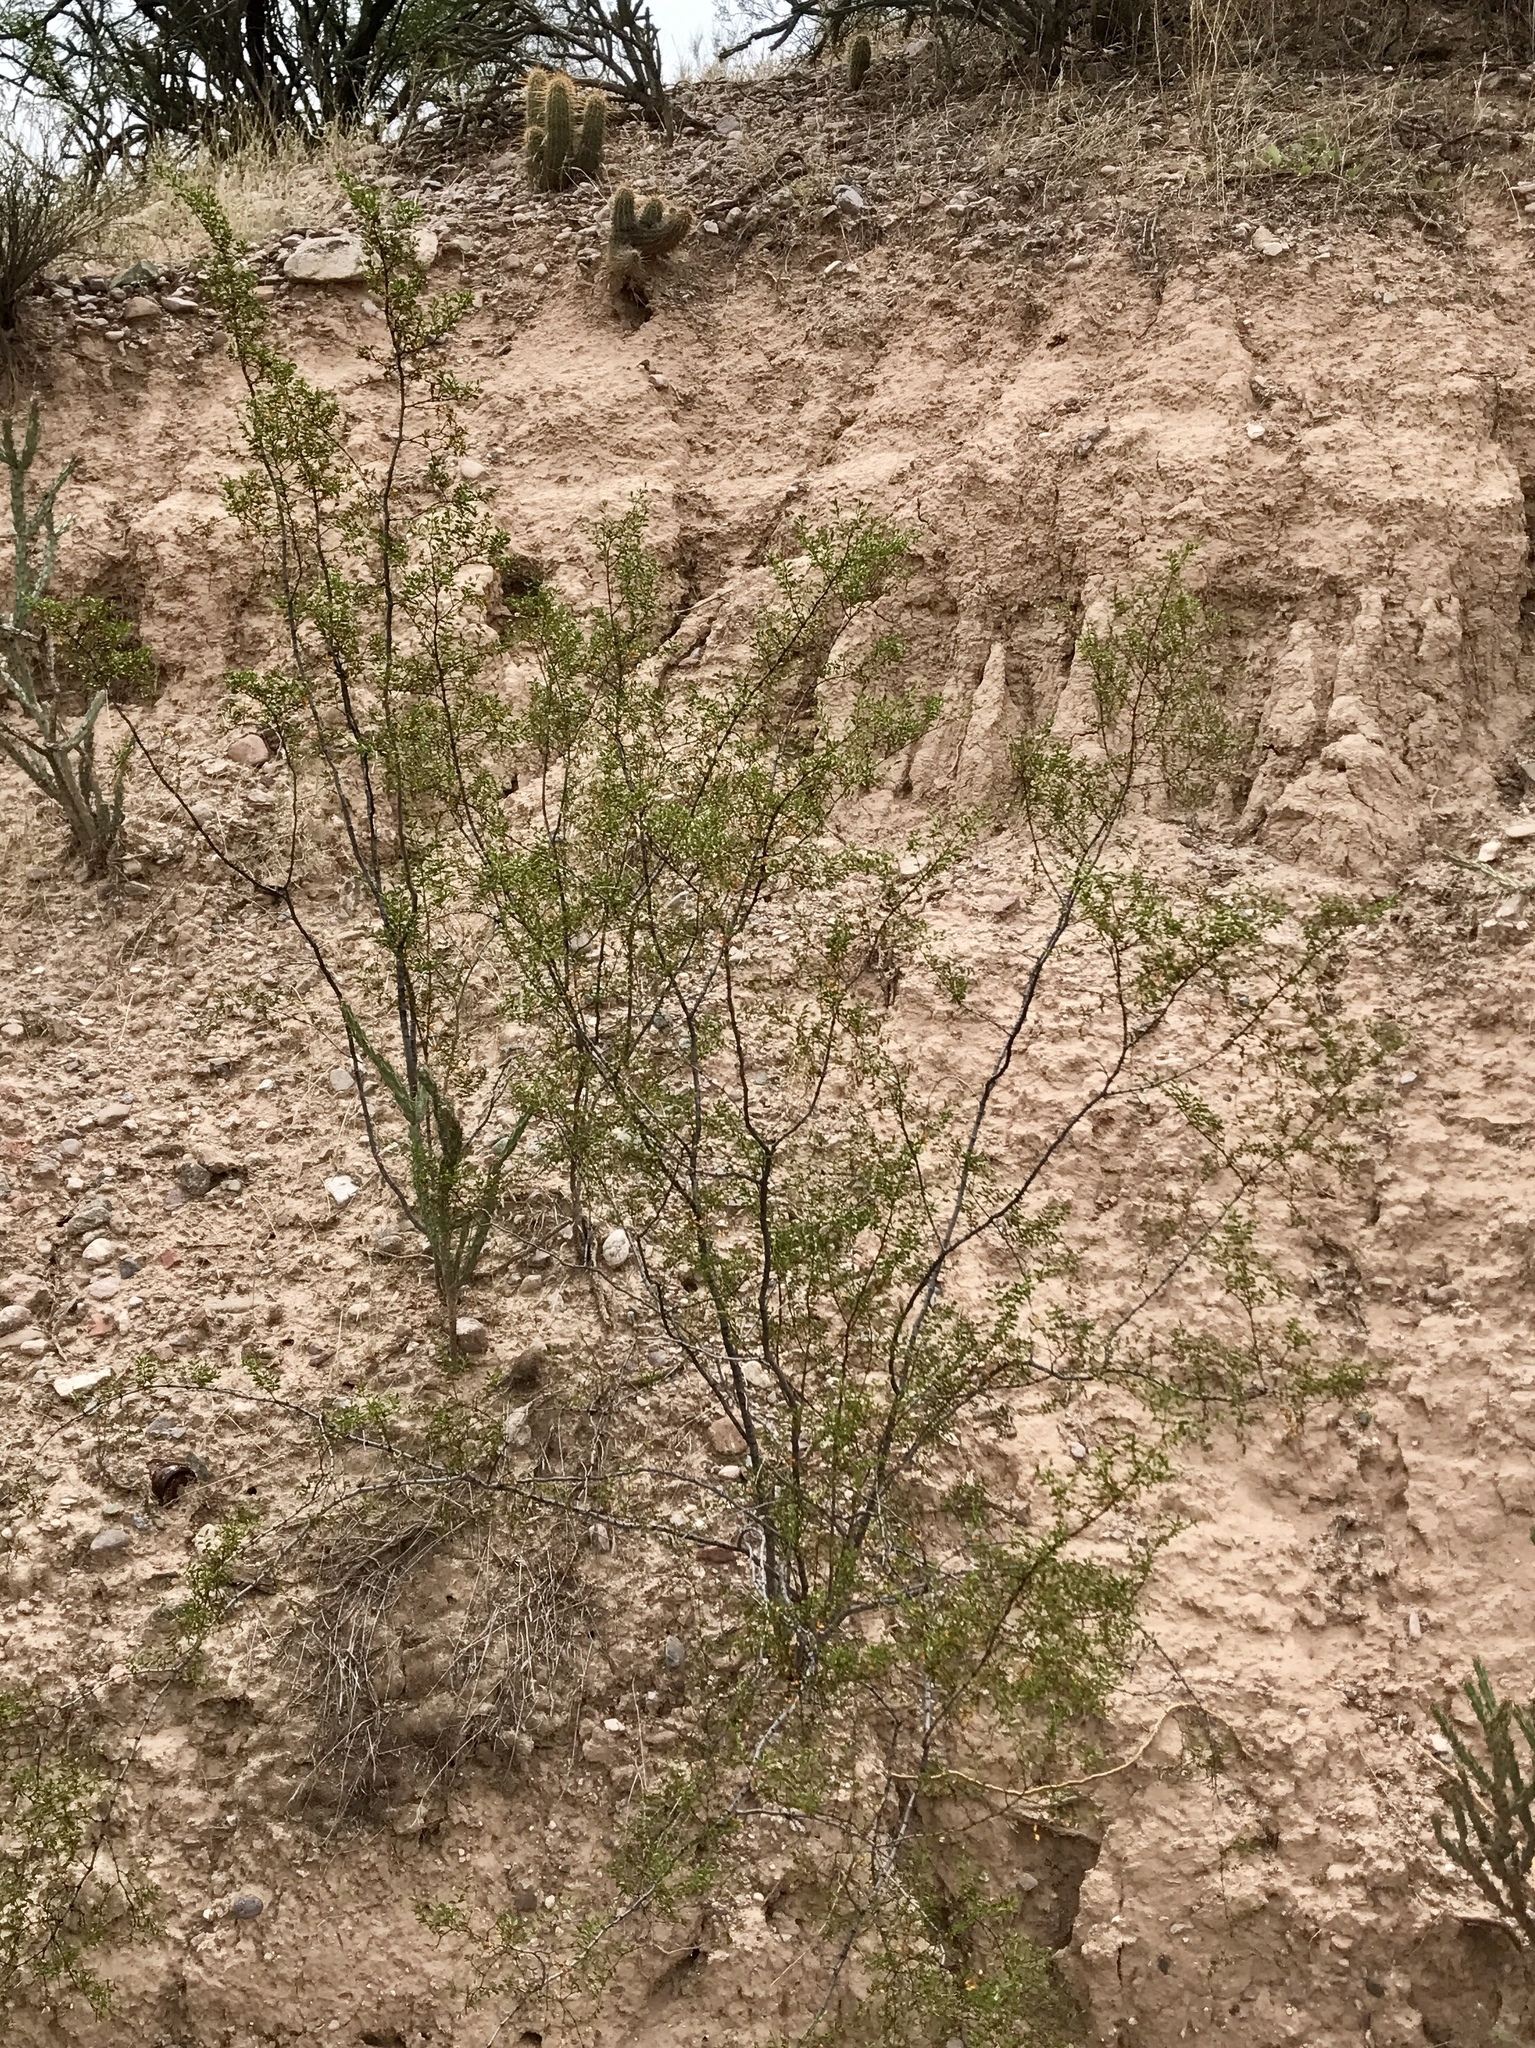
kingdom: Plantae
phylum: Tracheophyta
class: Magnoliopsida
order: Zygophyllales
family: Zygophyllaceae
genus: Larrea
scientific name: Larrea tridentata
